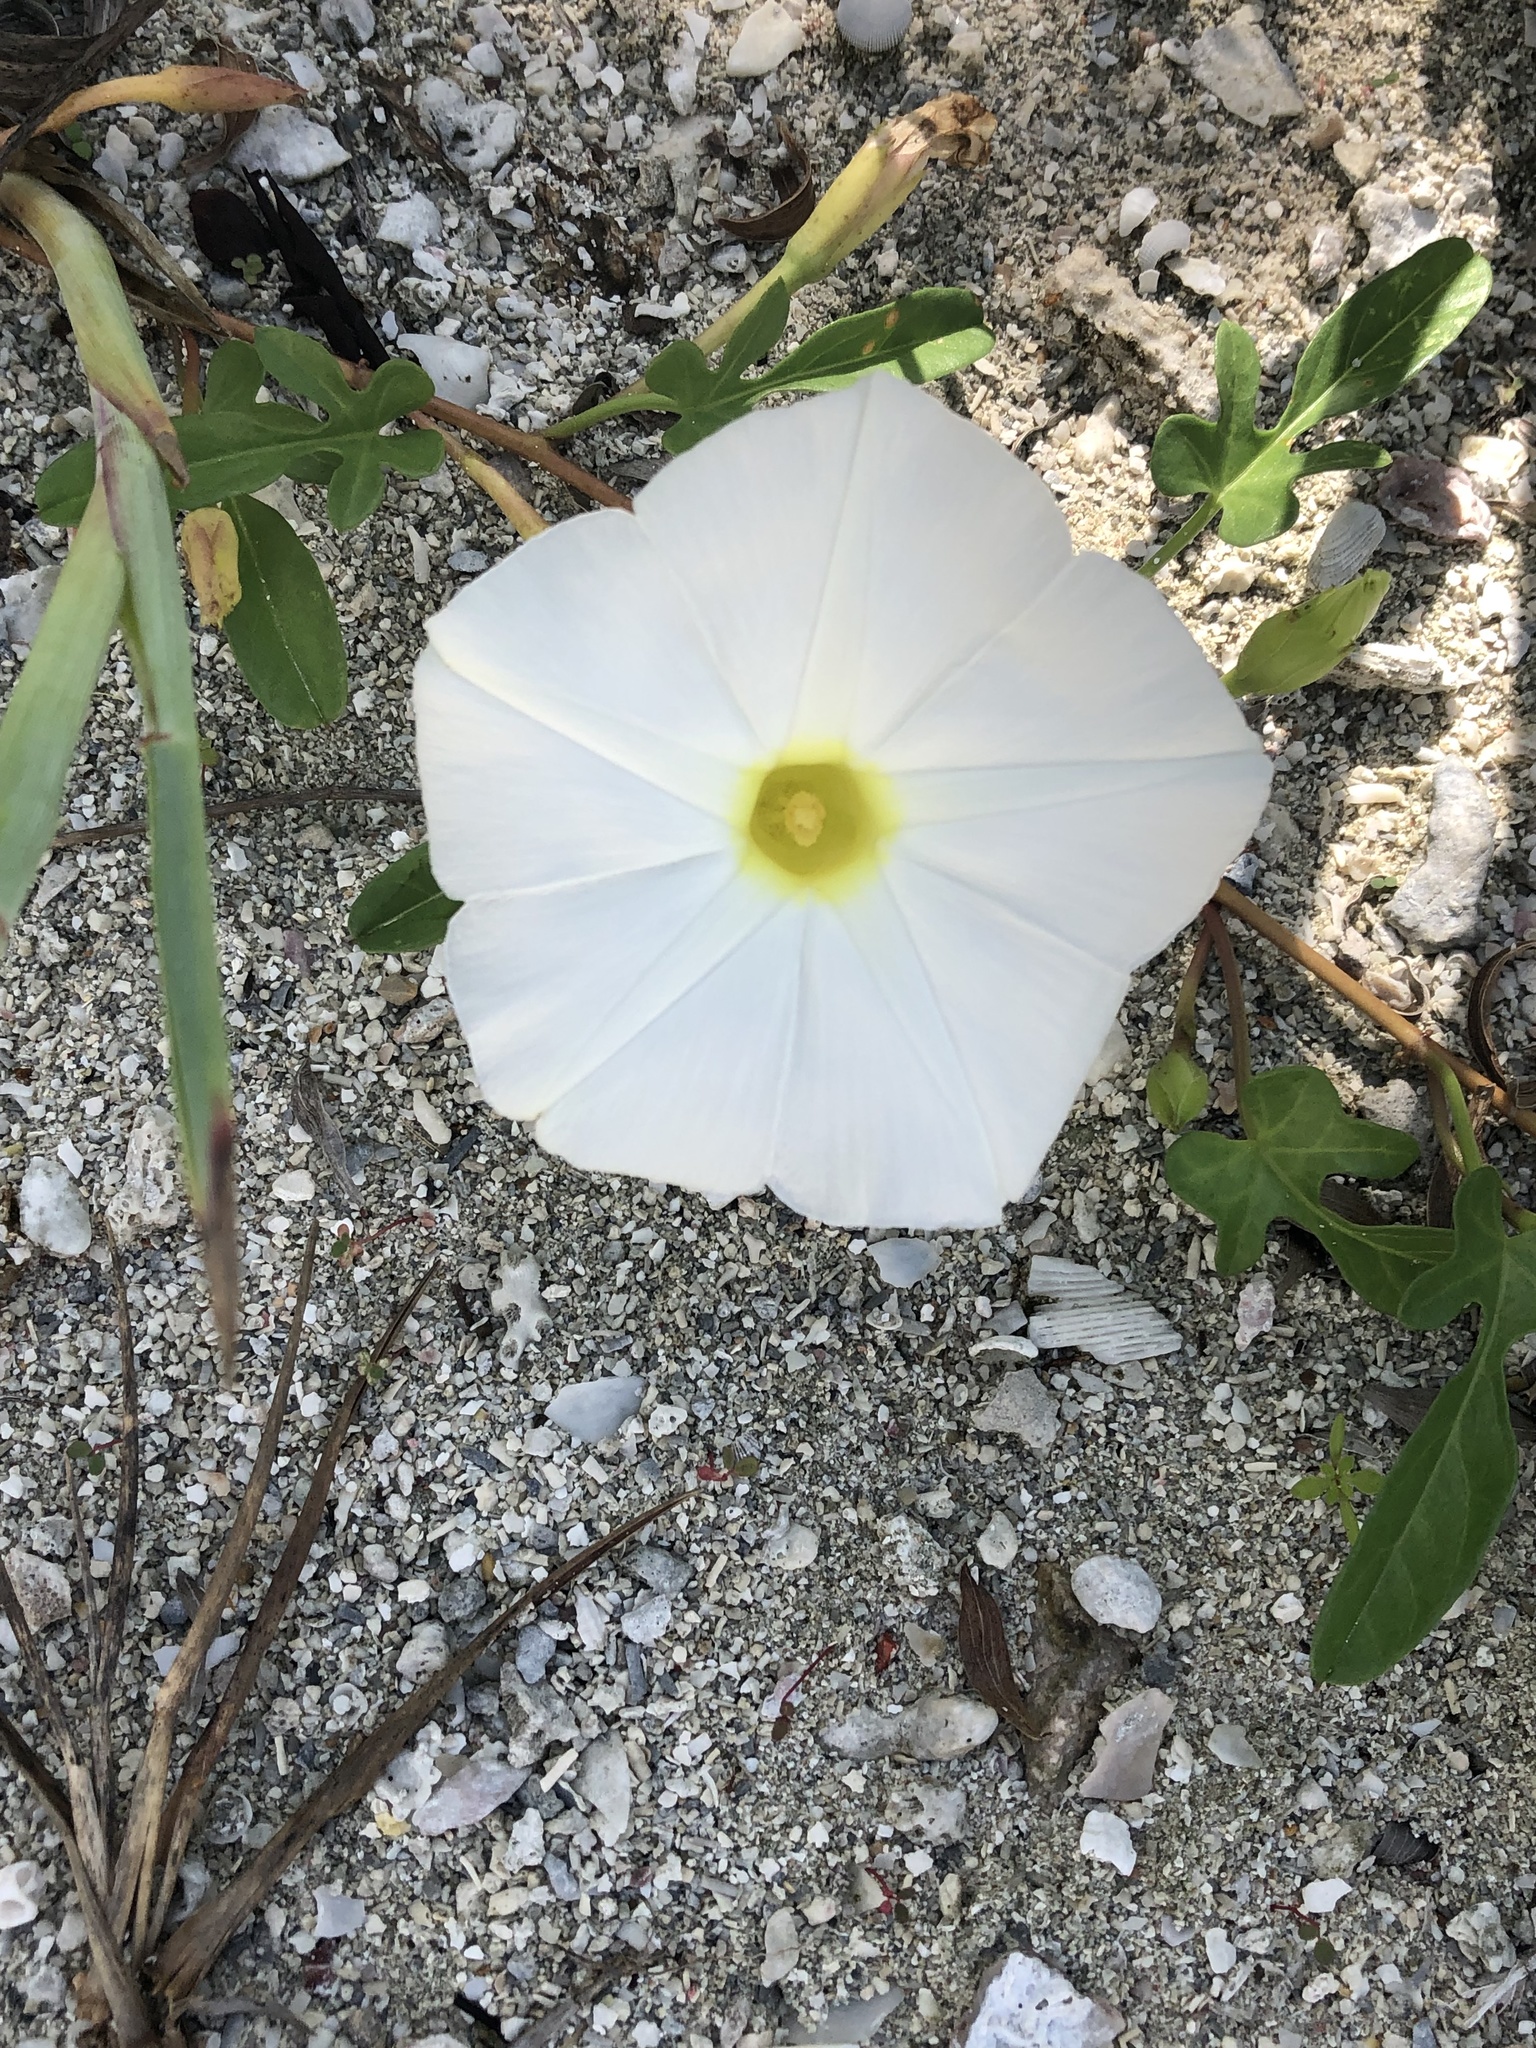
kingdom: Plantae
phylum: Tracheophyta
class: Magnoliopsida
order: Solanales
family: Convolvulaceae
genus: Ipomoea
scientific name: Ipomoea imperati
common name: Fiddle-leaf morning-glory
